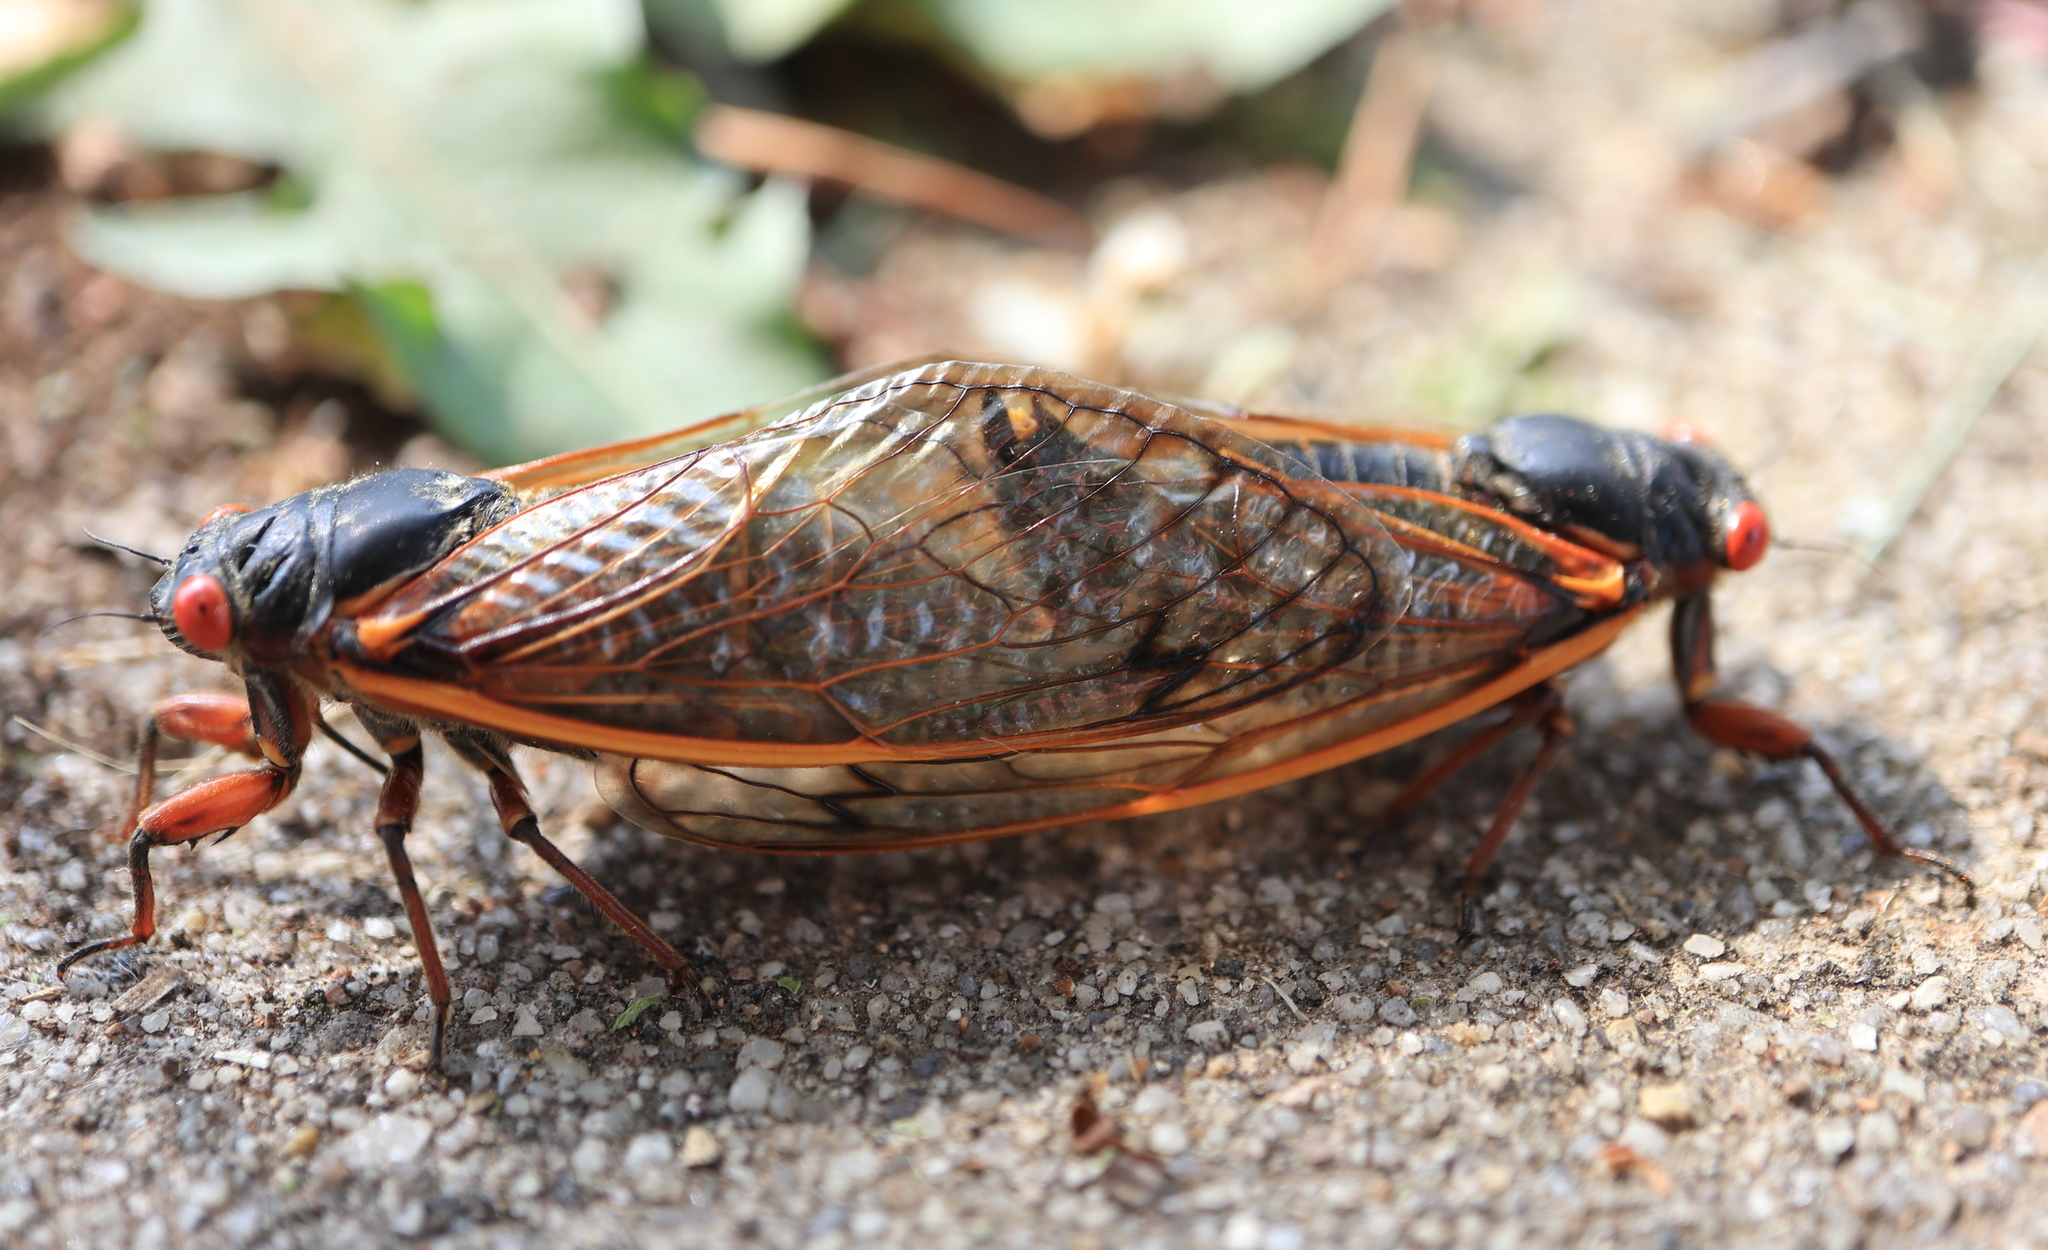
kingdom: Animalia
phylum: Arthropoda
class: Insecta
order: Hemiptera
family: Cicadidae
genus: Magicicada
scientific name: Magicicada septendecim
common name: Periodical cicada
